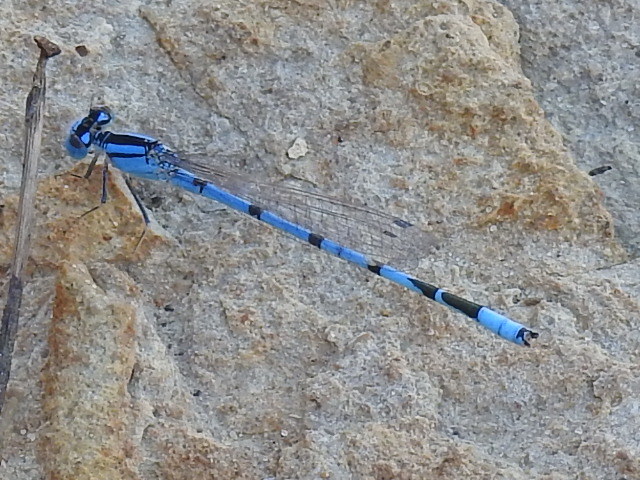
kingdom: Animalia
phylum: Arthropoda
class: Insecta
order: Odonata
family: Coenagrionidae
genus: Enallagma
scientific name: Enallagma civile
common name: Damselfly
